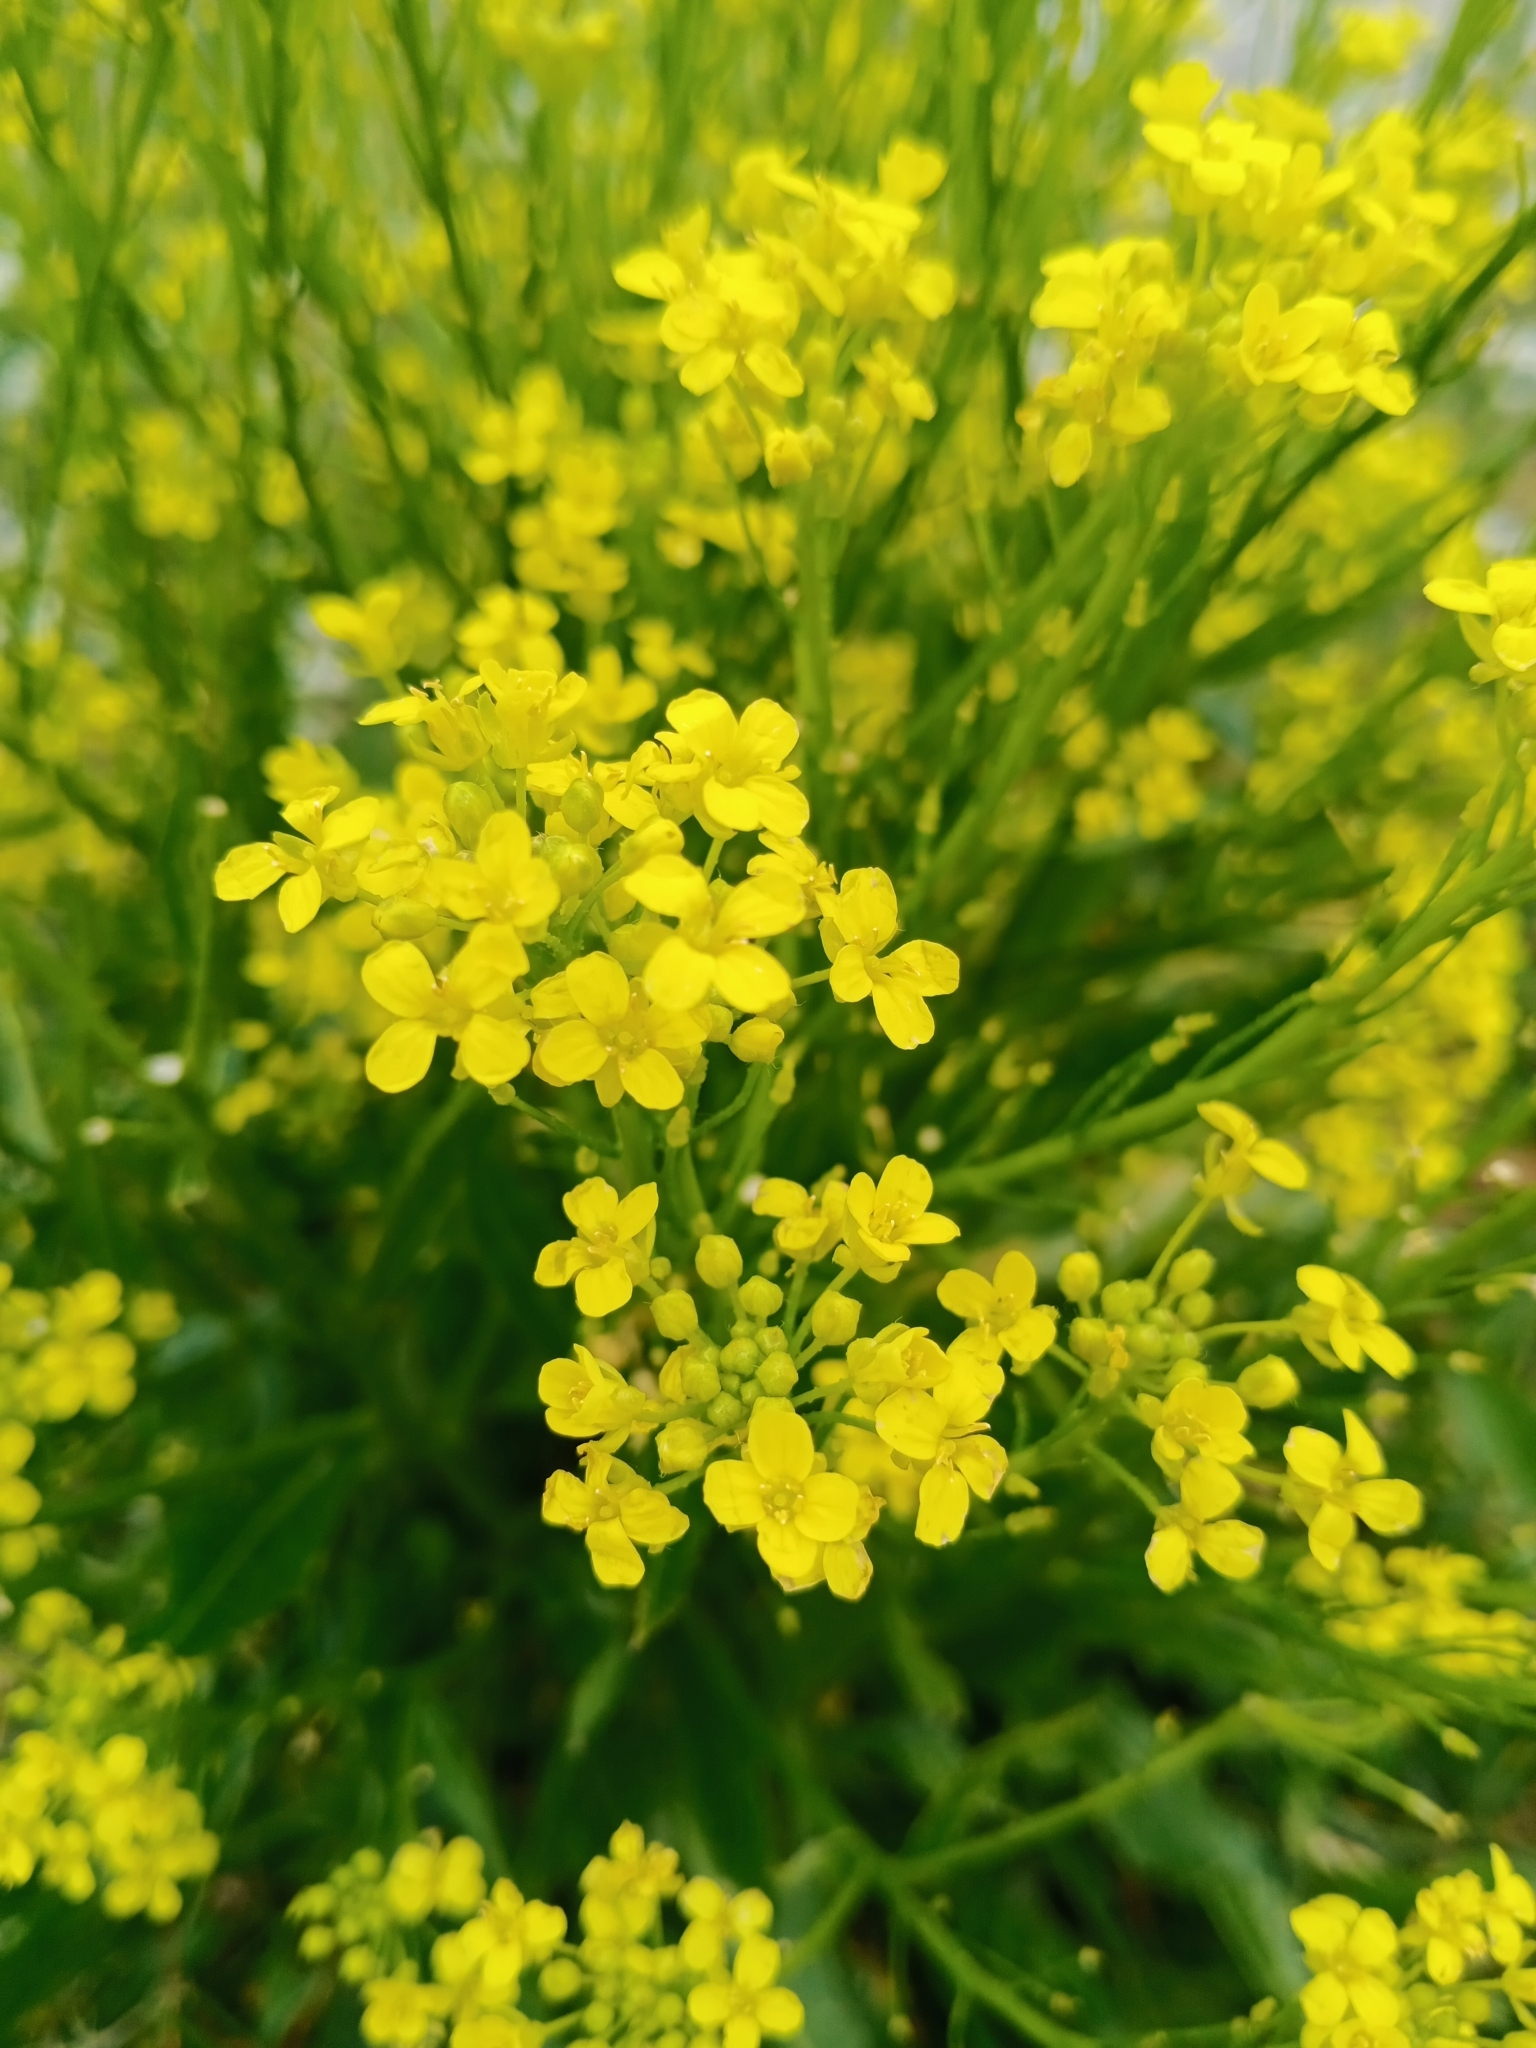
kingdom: Plantae
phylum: Tracheophyta
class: Magnoliopsida
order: Brassicales
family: Brassicaceae
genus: Bunias
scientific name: Bunias orientalis
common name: Warty-cabbage
